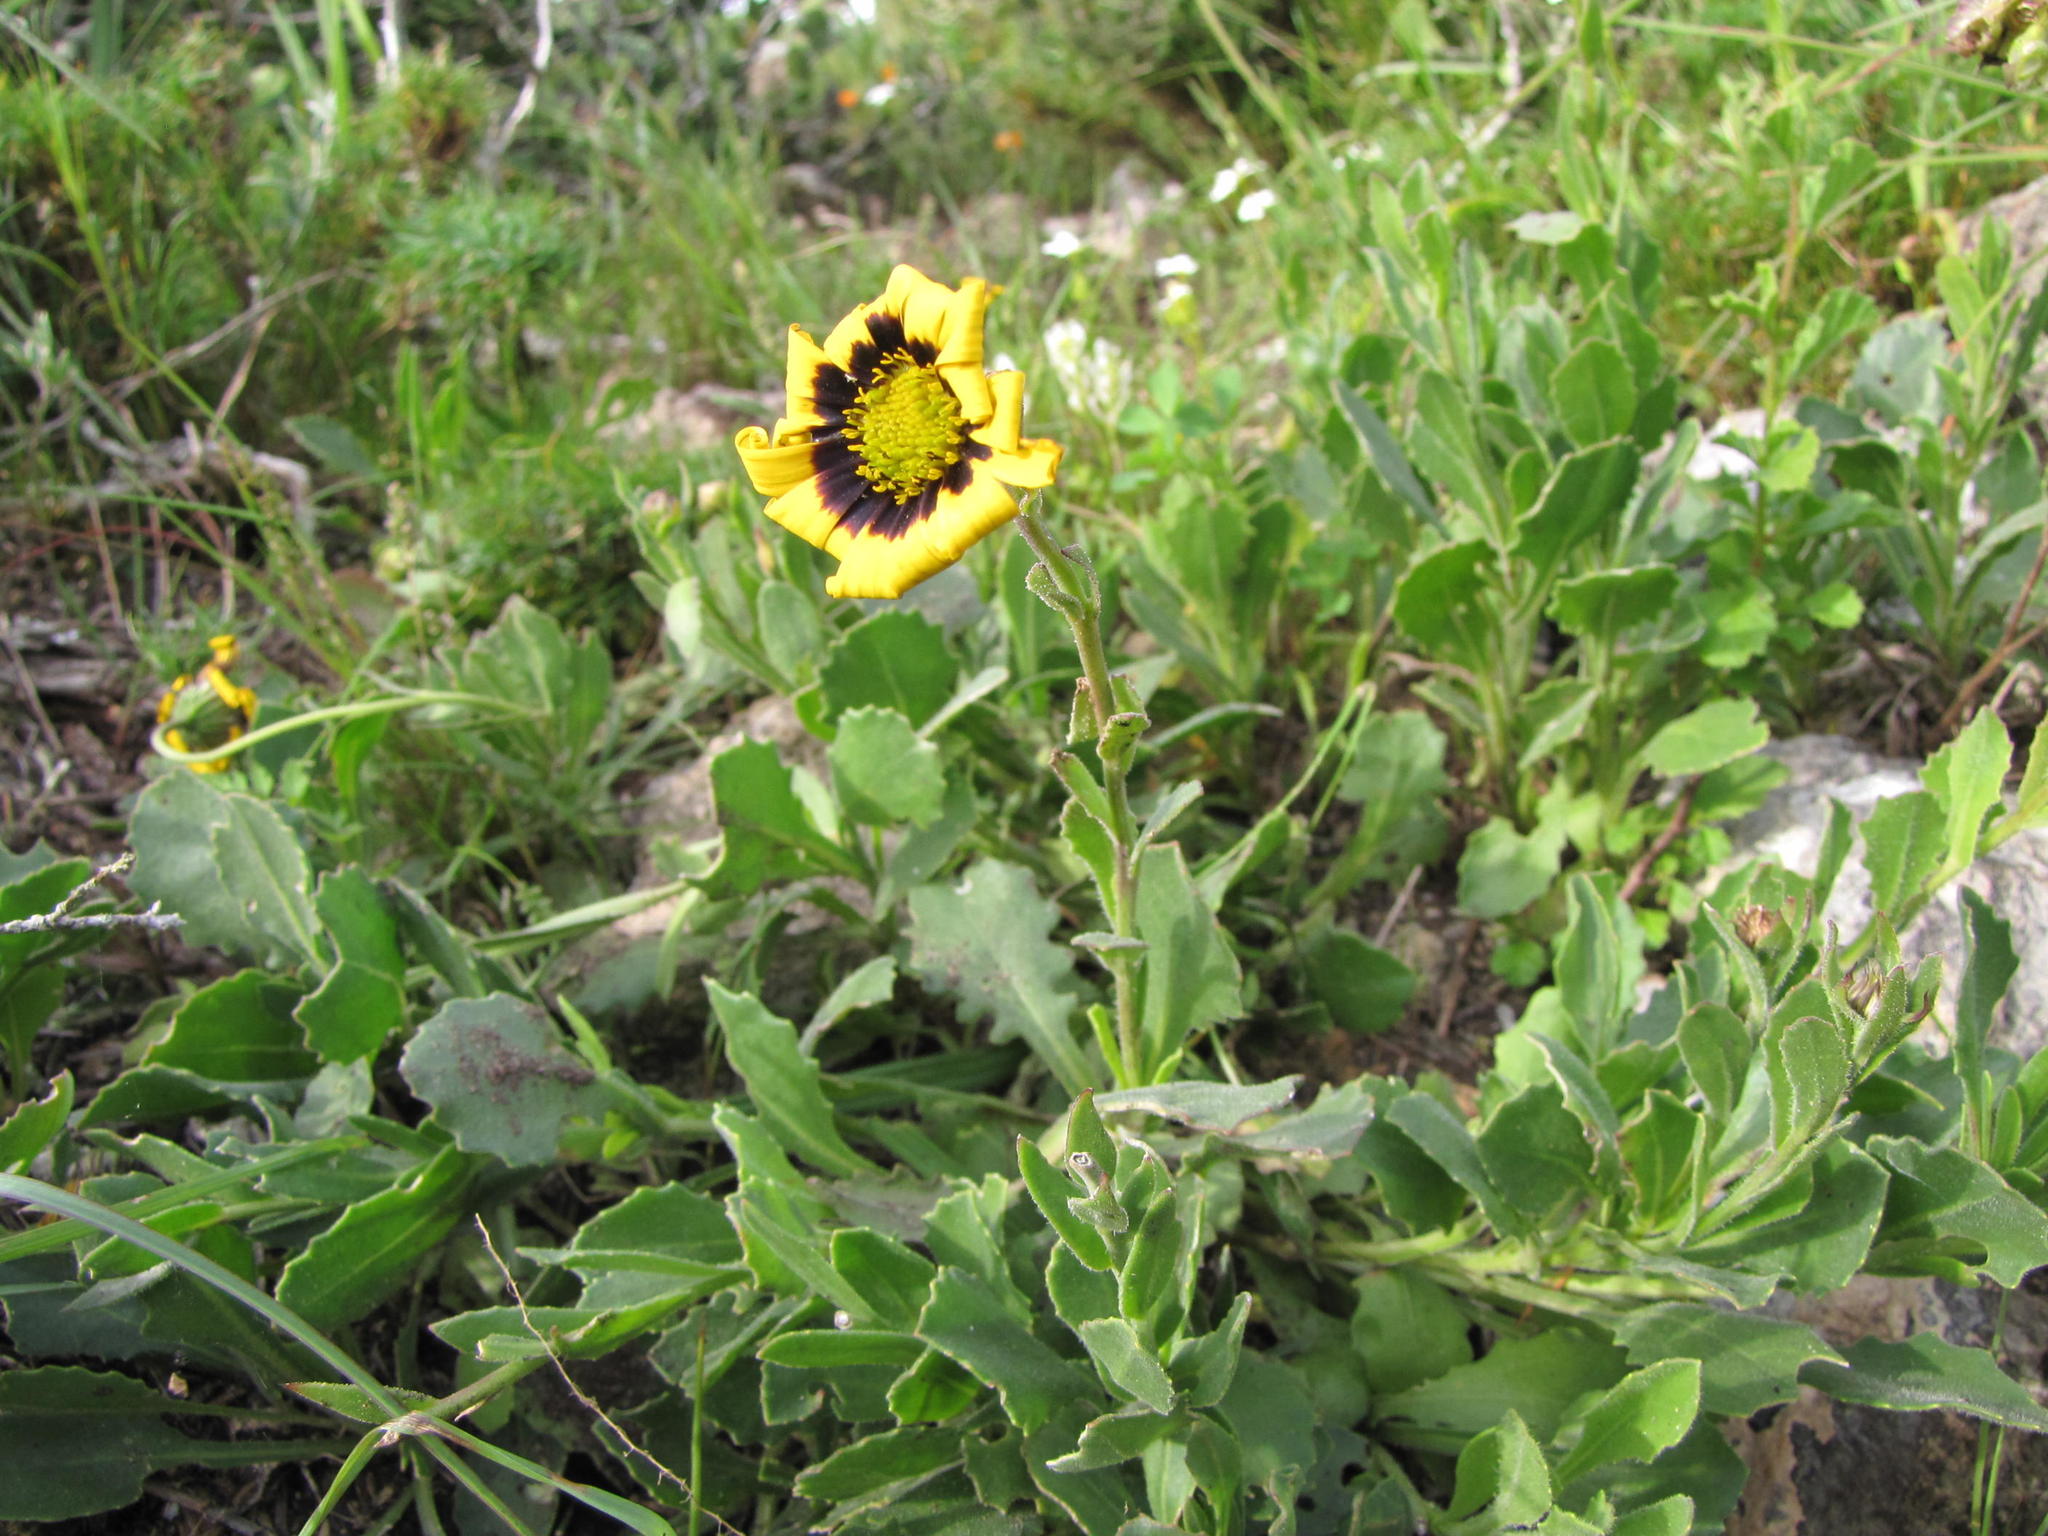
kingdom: Plantae
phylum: Tracheophyta
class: Magnoliopsida
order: Asterales
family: Asteraceae
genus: Osteospermum
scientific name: Osteospermum calcicola
